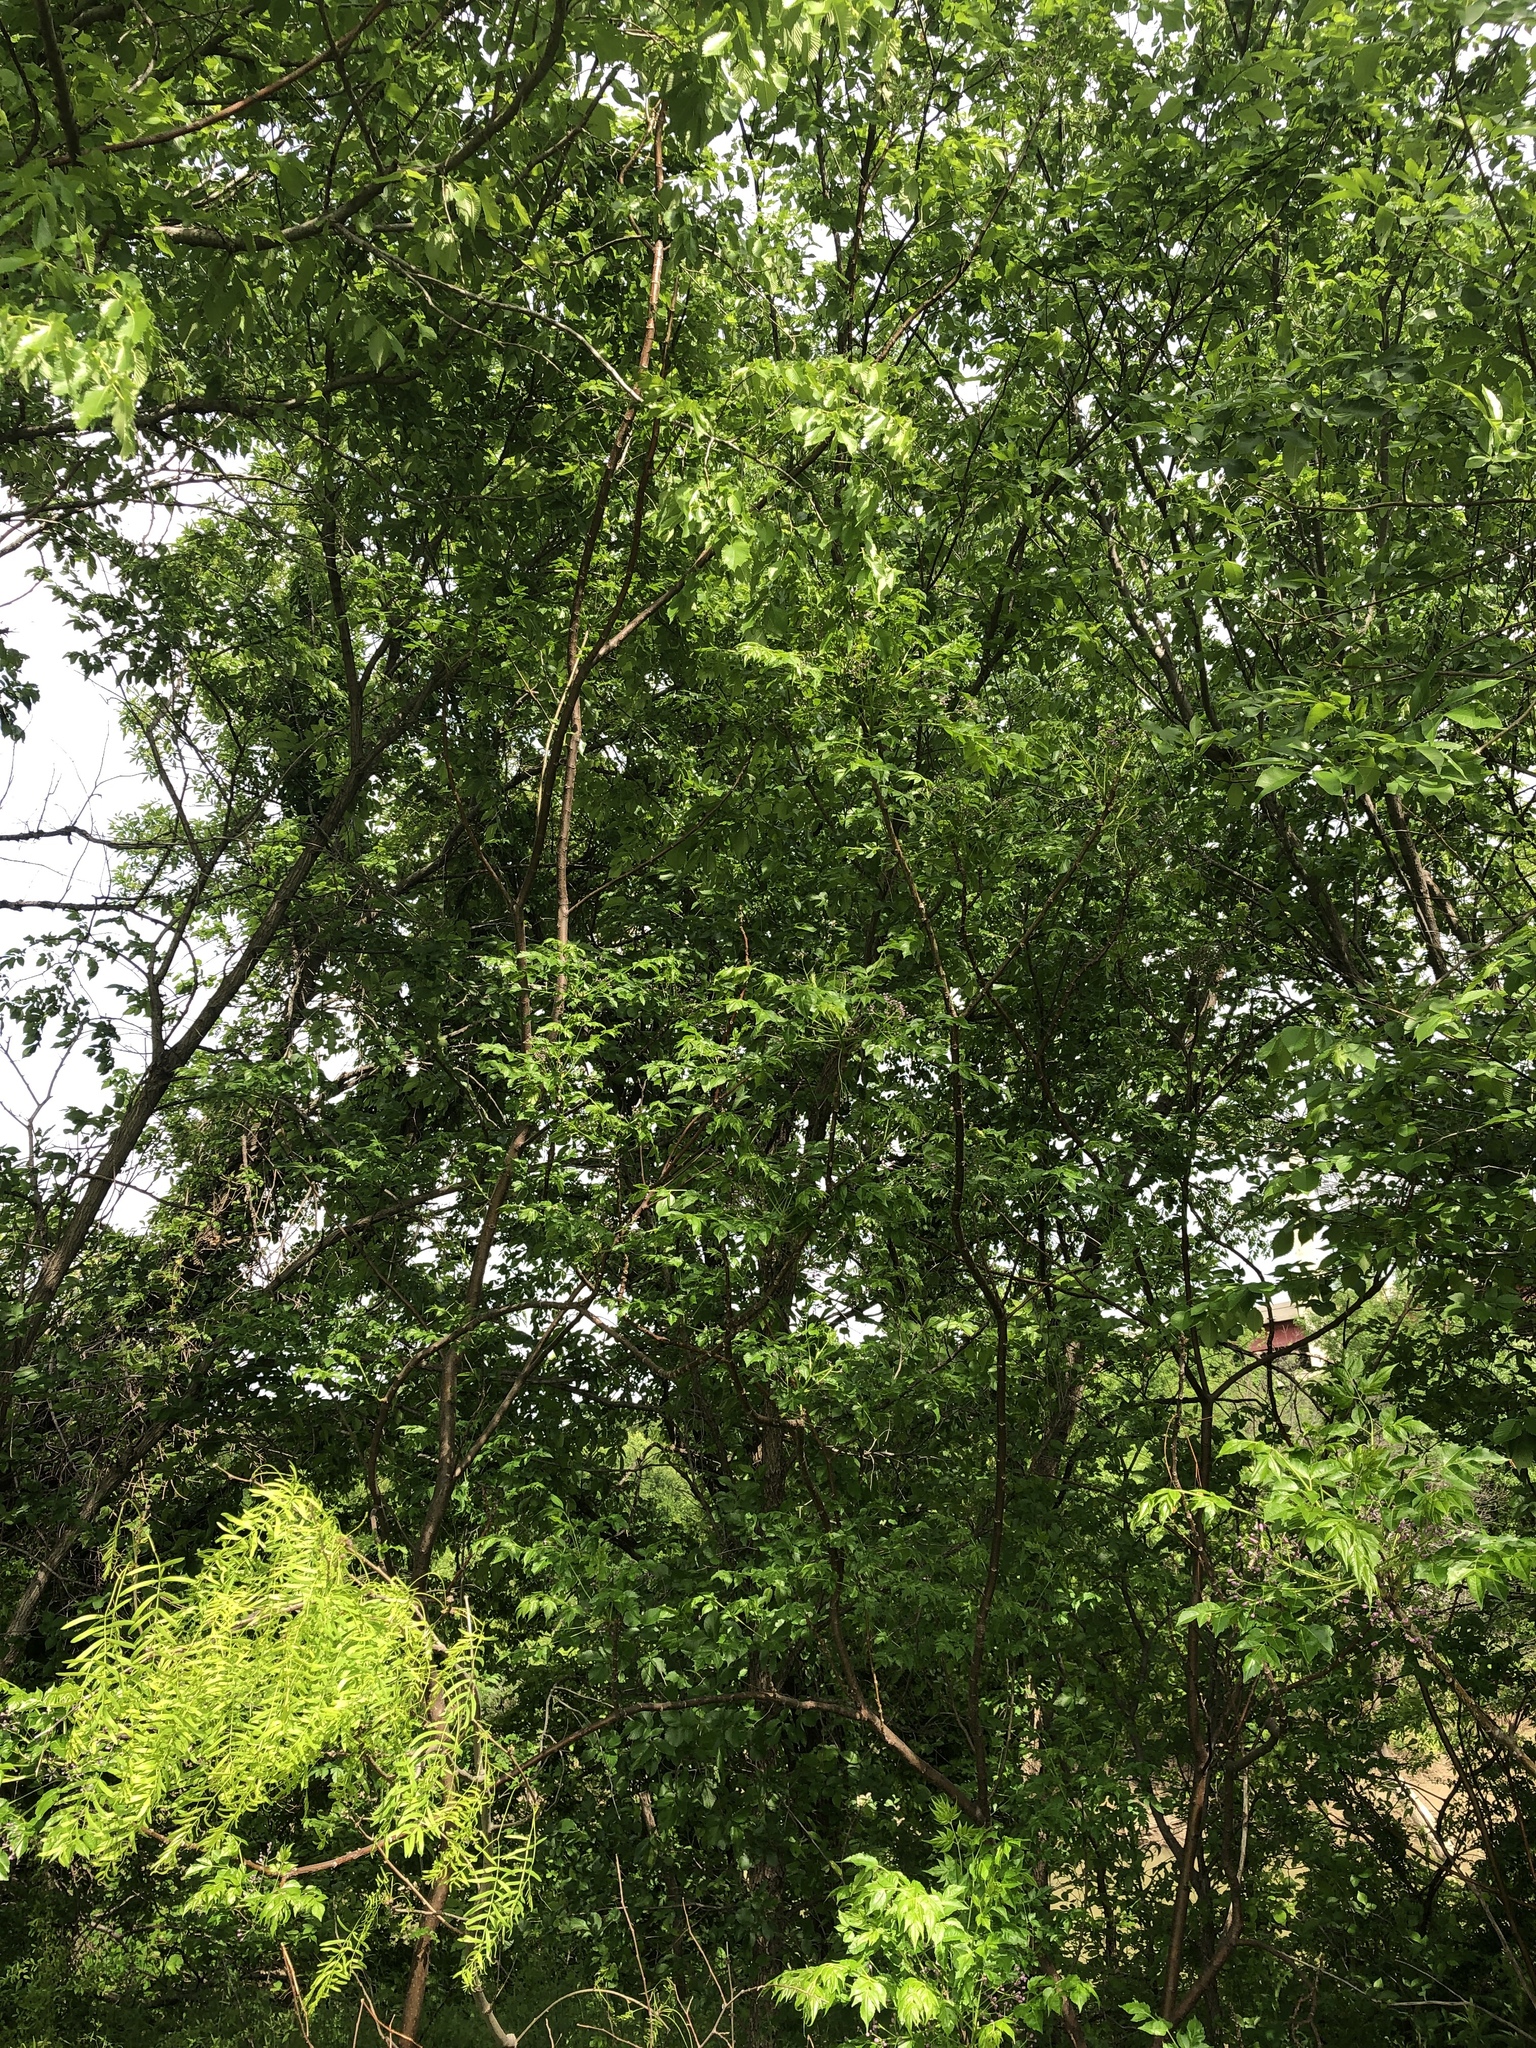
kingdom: Plantae
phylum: Tracheophyta
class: Magnoliopsida
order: Sapindales
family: Meliaceae
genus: Melia
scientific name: Melia azedarach
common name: Chinaberrytree
